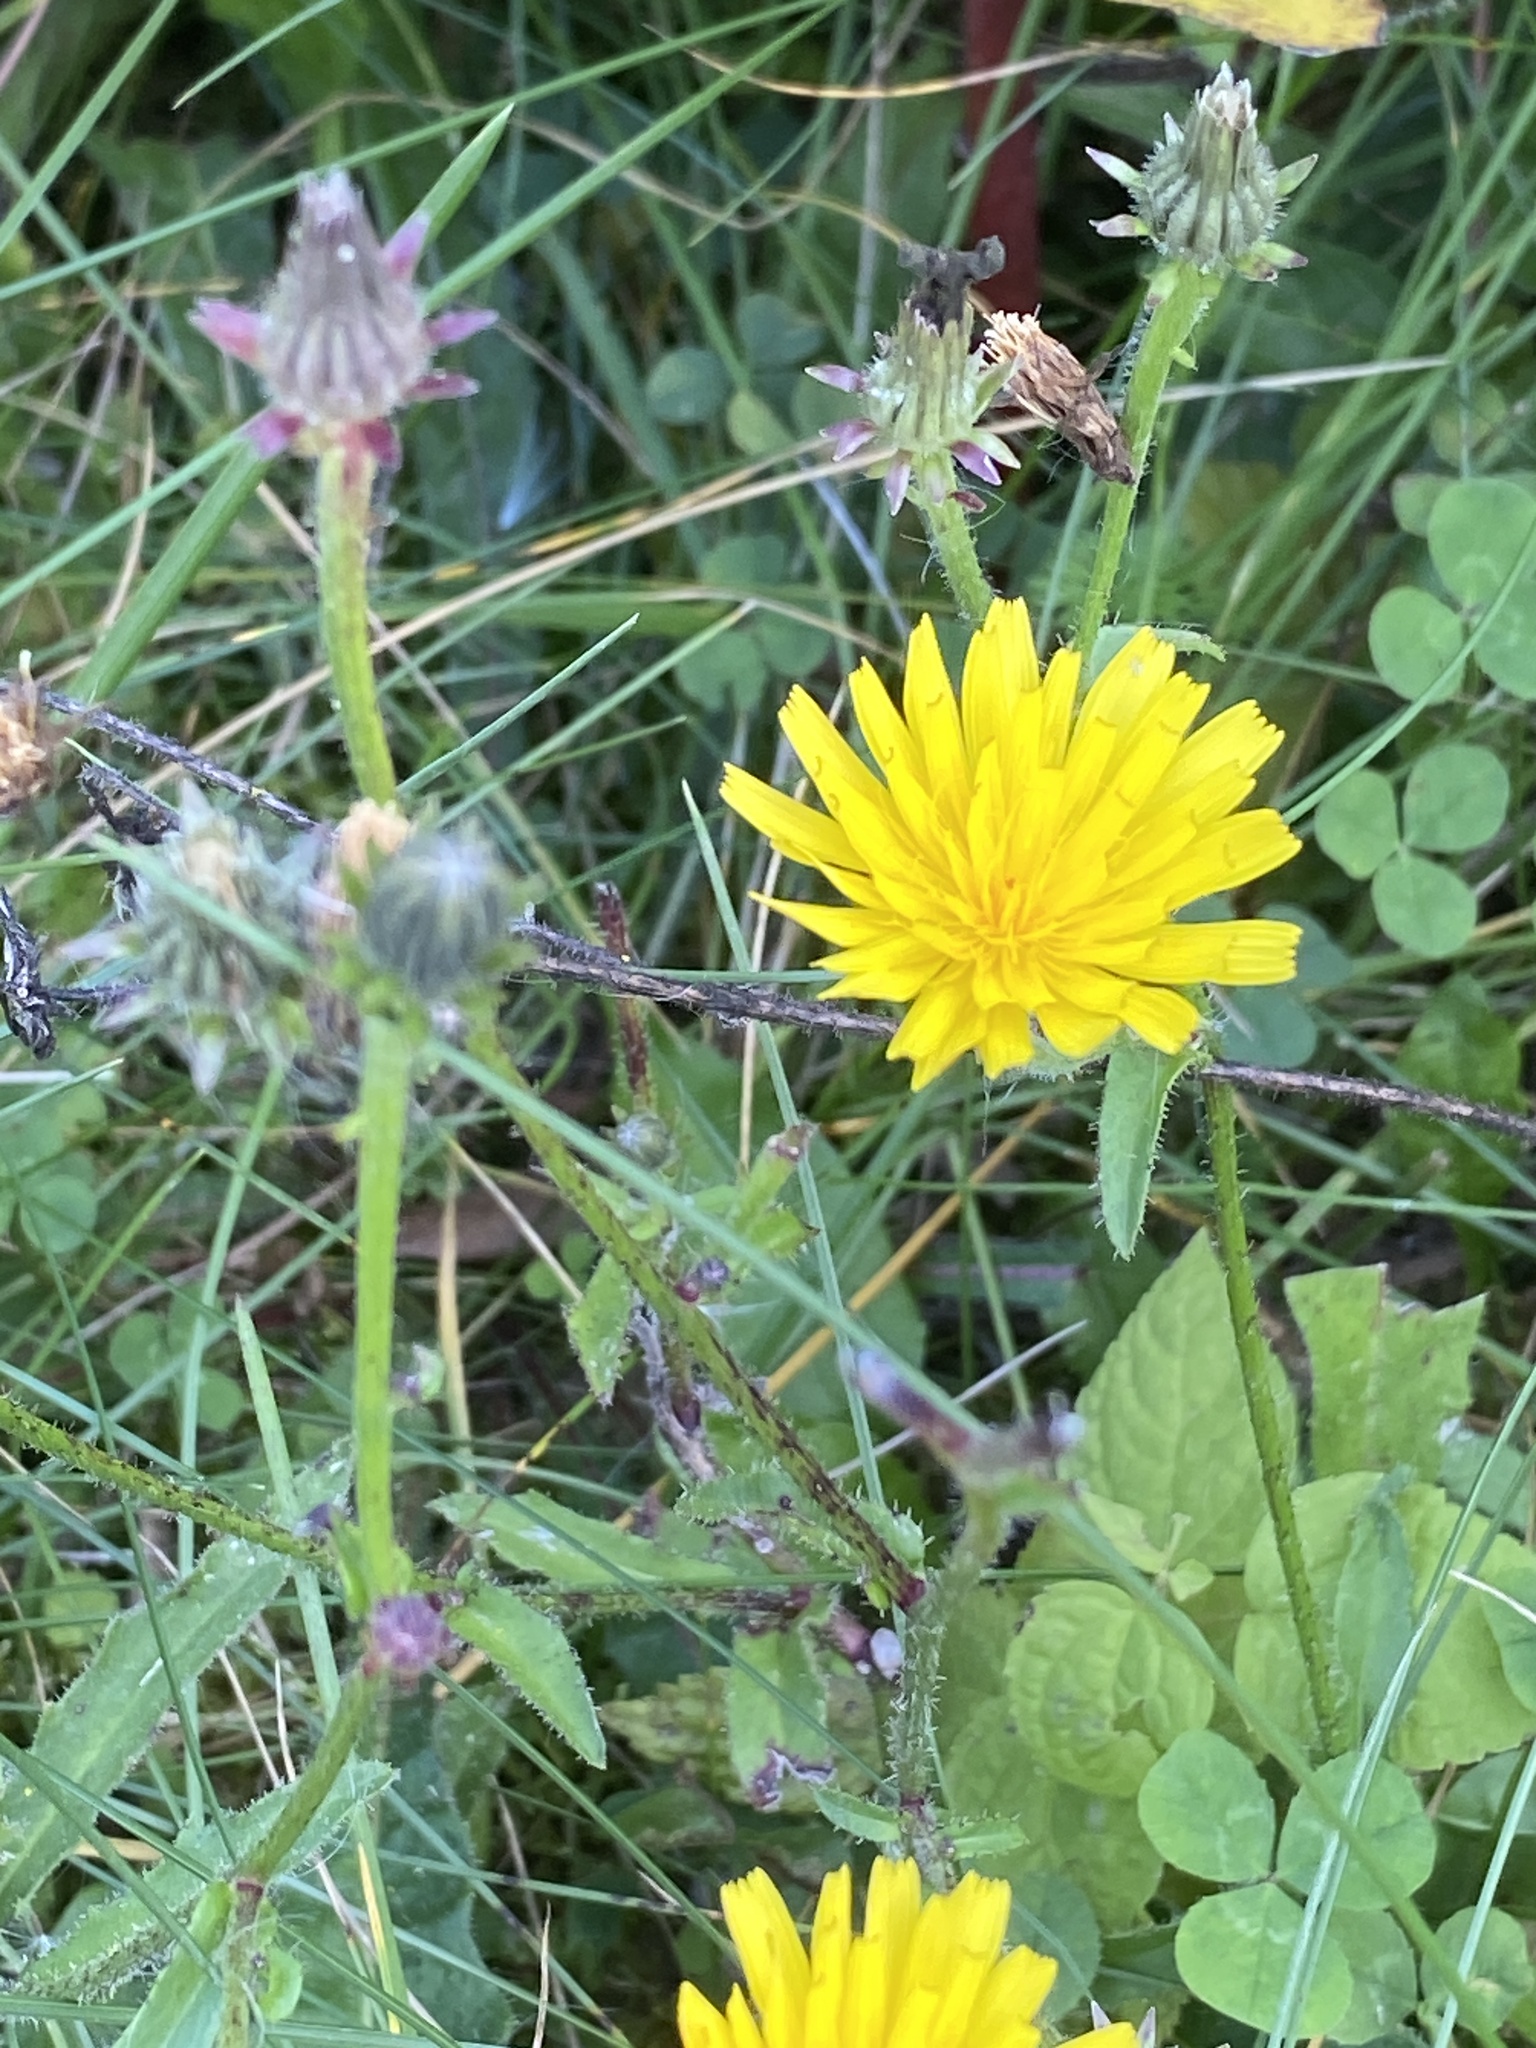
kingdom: Plantae
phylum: Tracheophyta
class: Magnoliopsida
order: Asterales
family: Asteraceae
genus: Picris
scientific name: Picris hieracioides
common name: Hawkweed oxtongue
